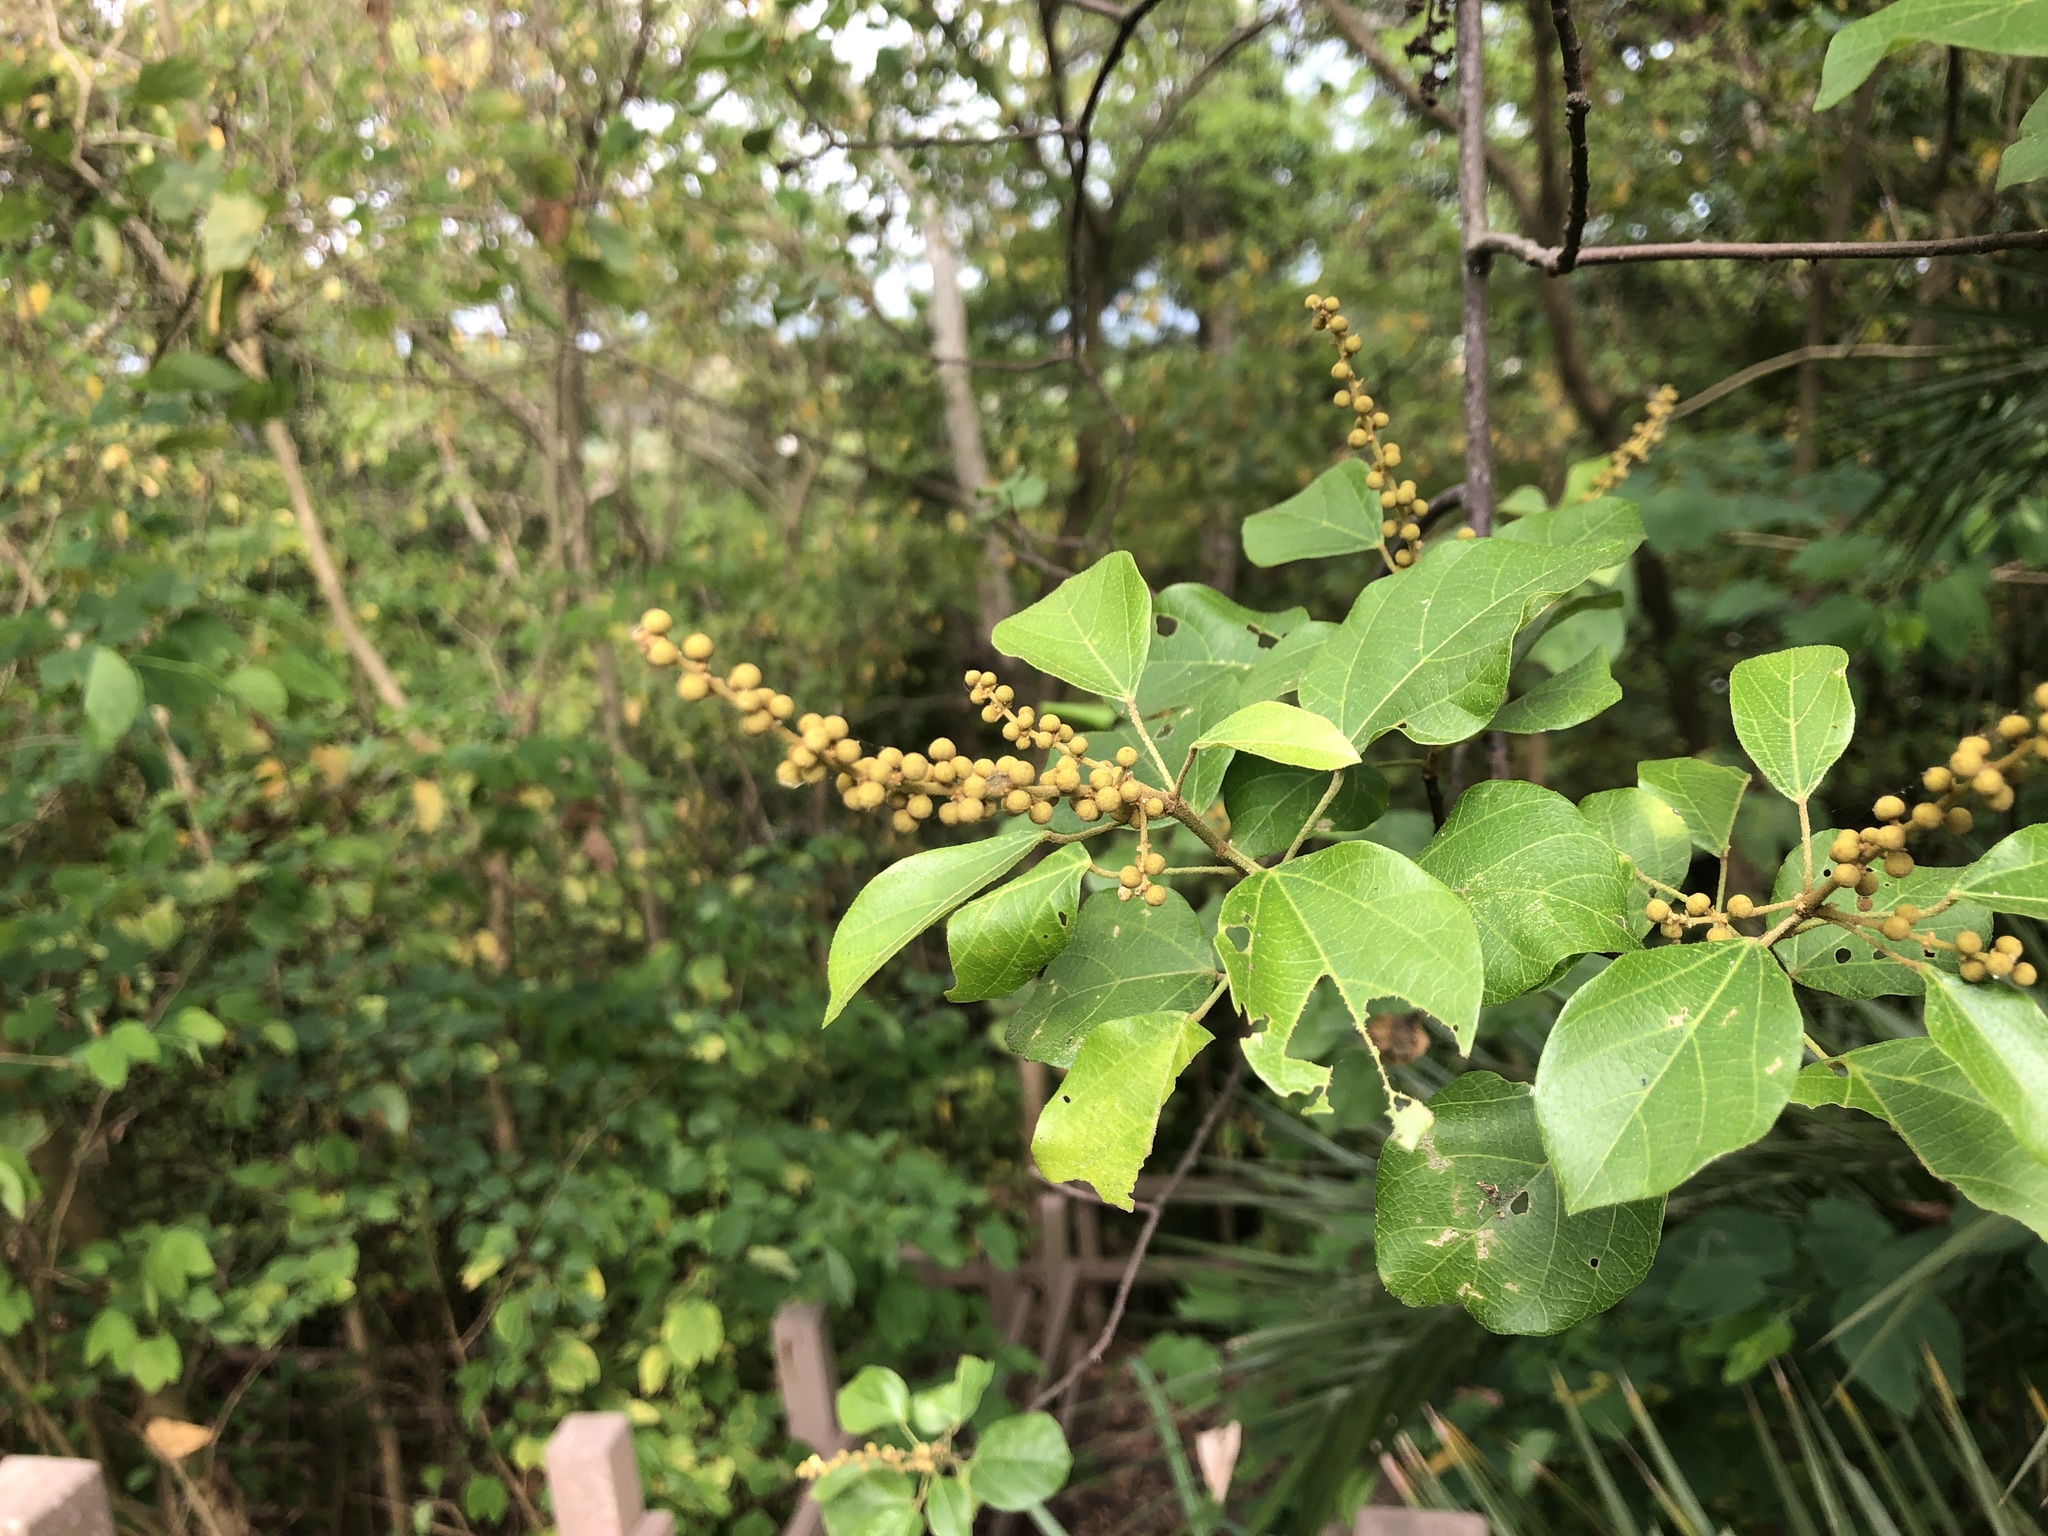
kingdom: Plantae
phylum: Tracheophyta
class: Magnoliopsida
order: Malpighiales
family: Euphorbiaceae
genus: Mallotus
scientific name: Mallotus repandus
